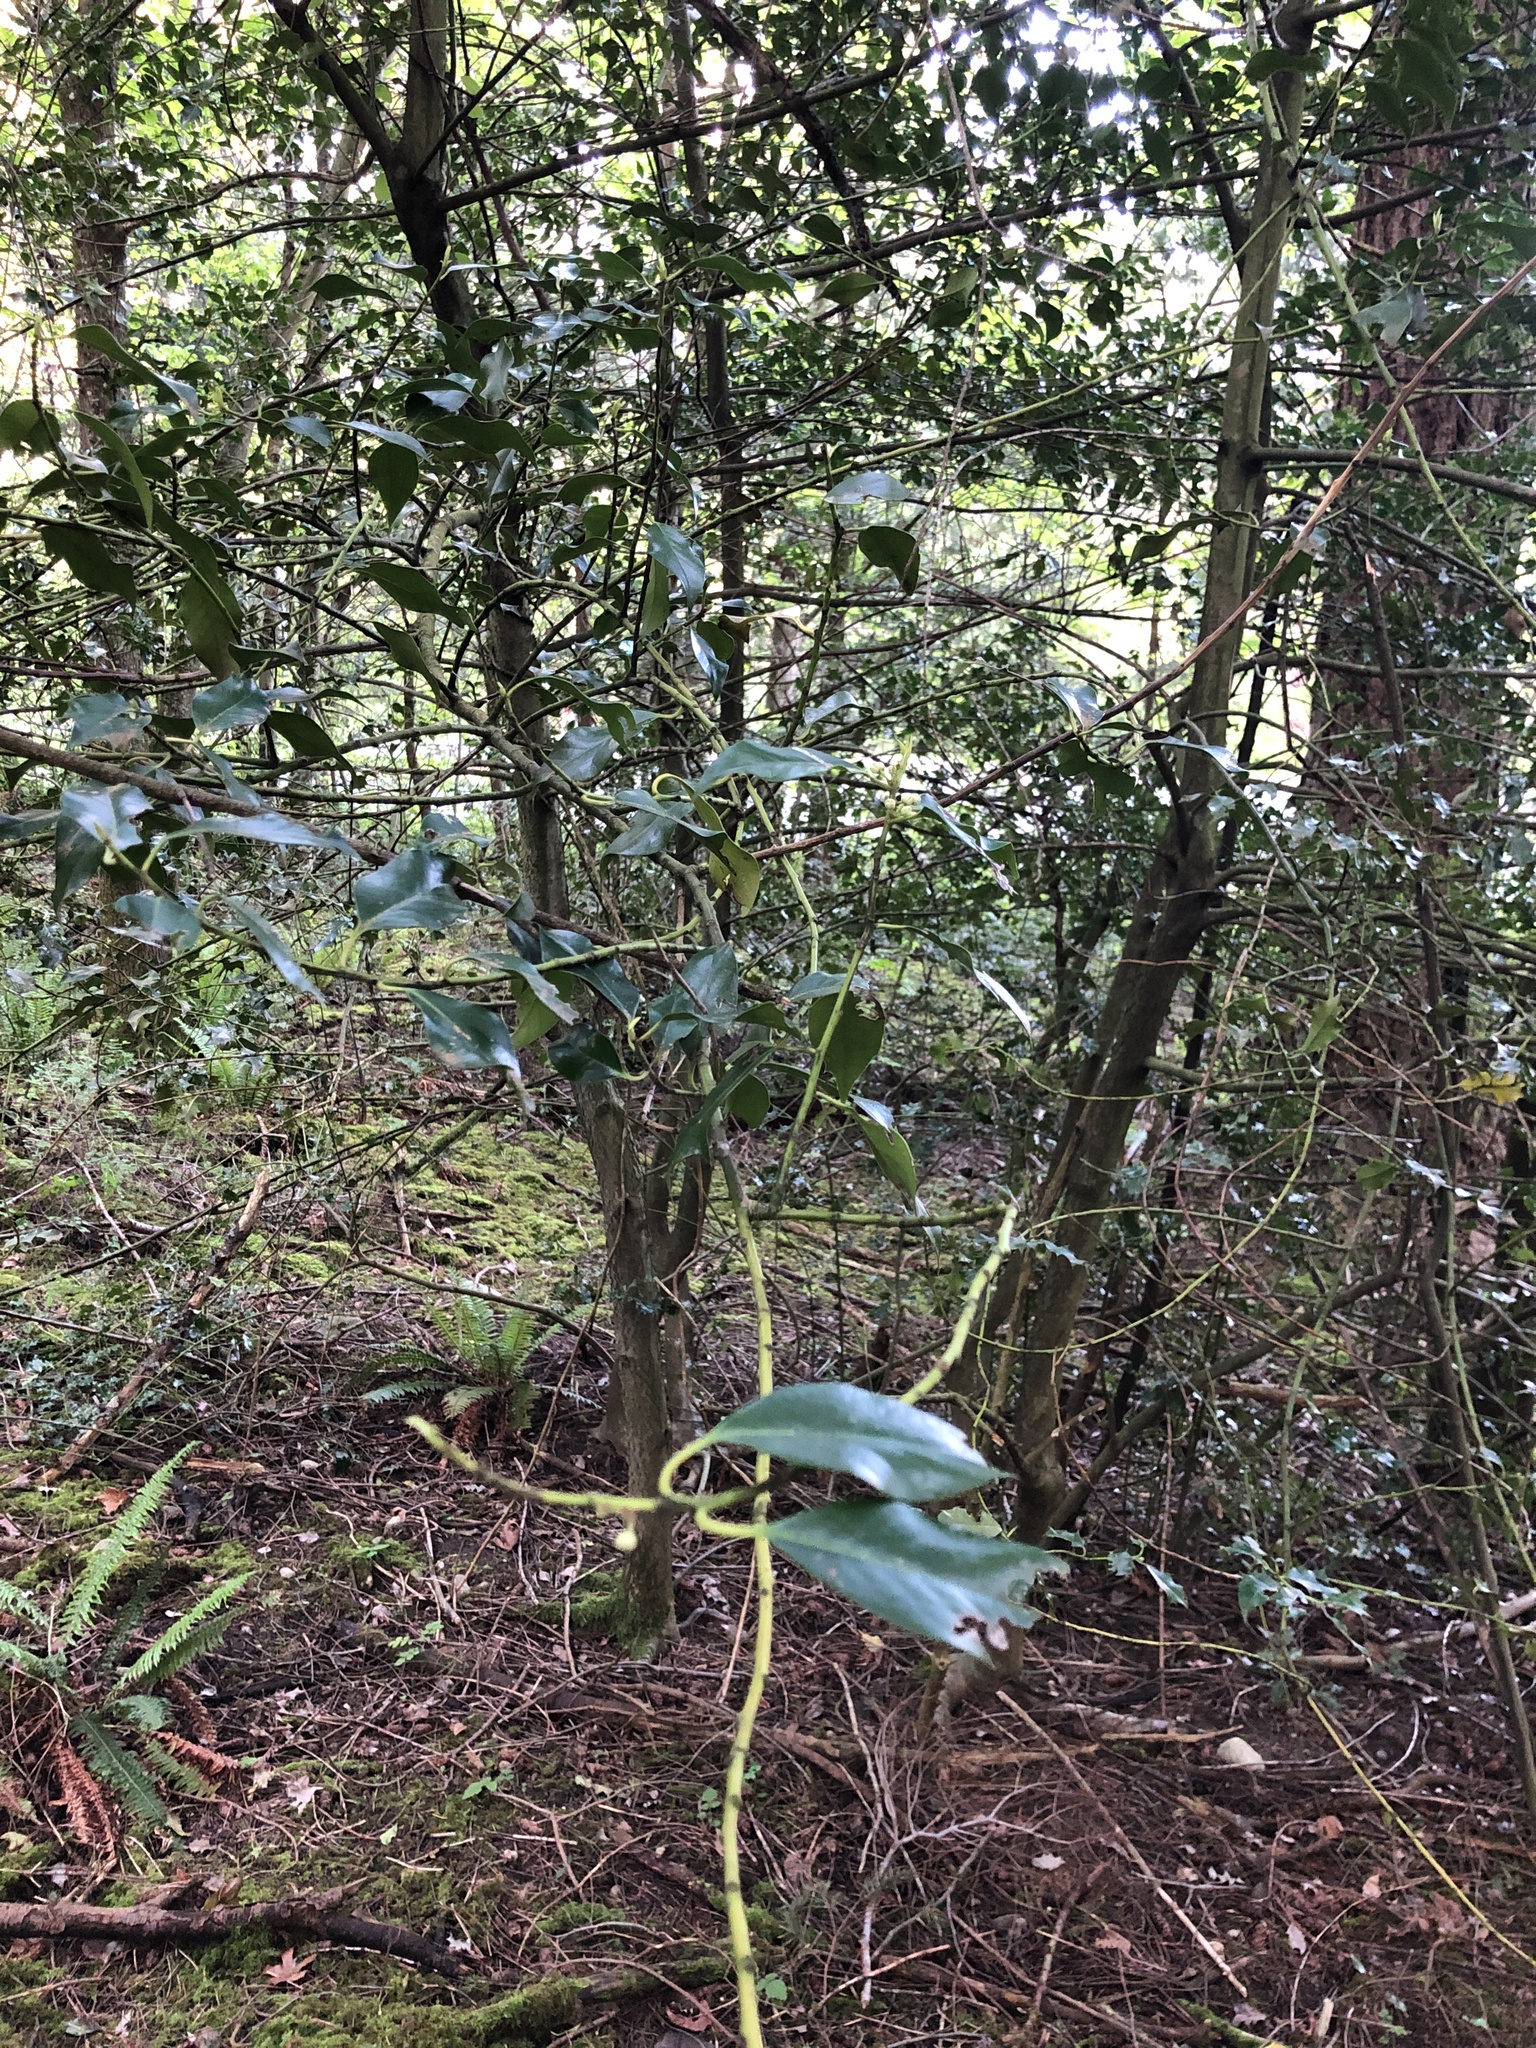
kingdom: Plantae
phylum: Tracheophyta
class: Magnoliopsida
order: Aquifoliales
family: Aquifoliaceae
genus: Ilex
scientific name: Ilex aquifolium
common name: English holly
